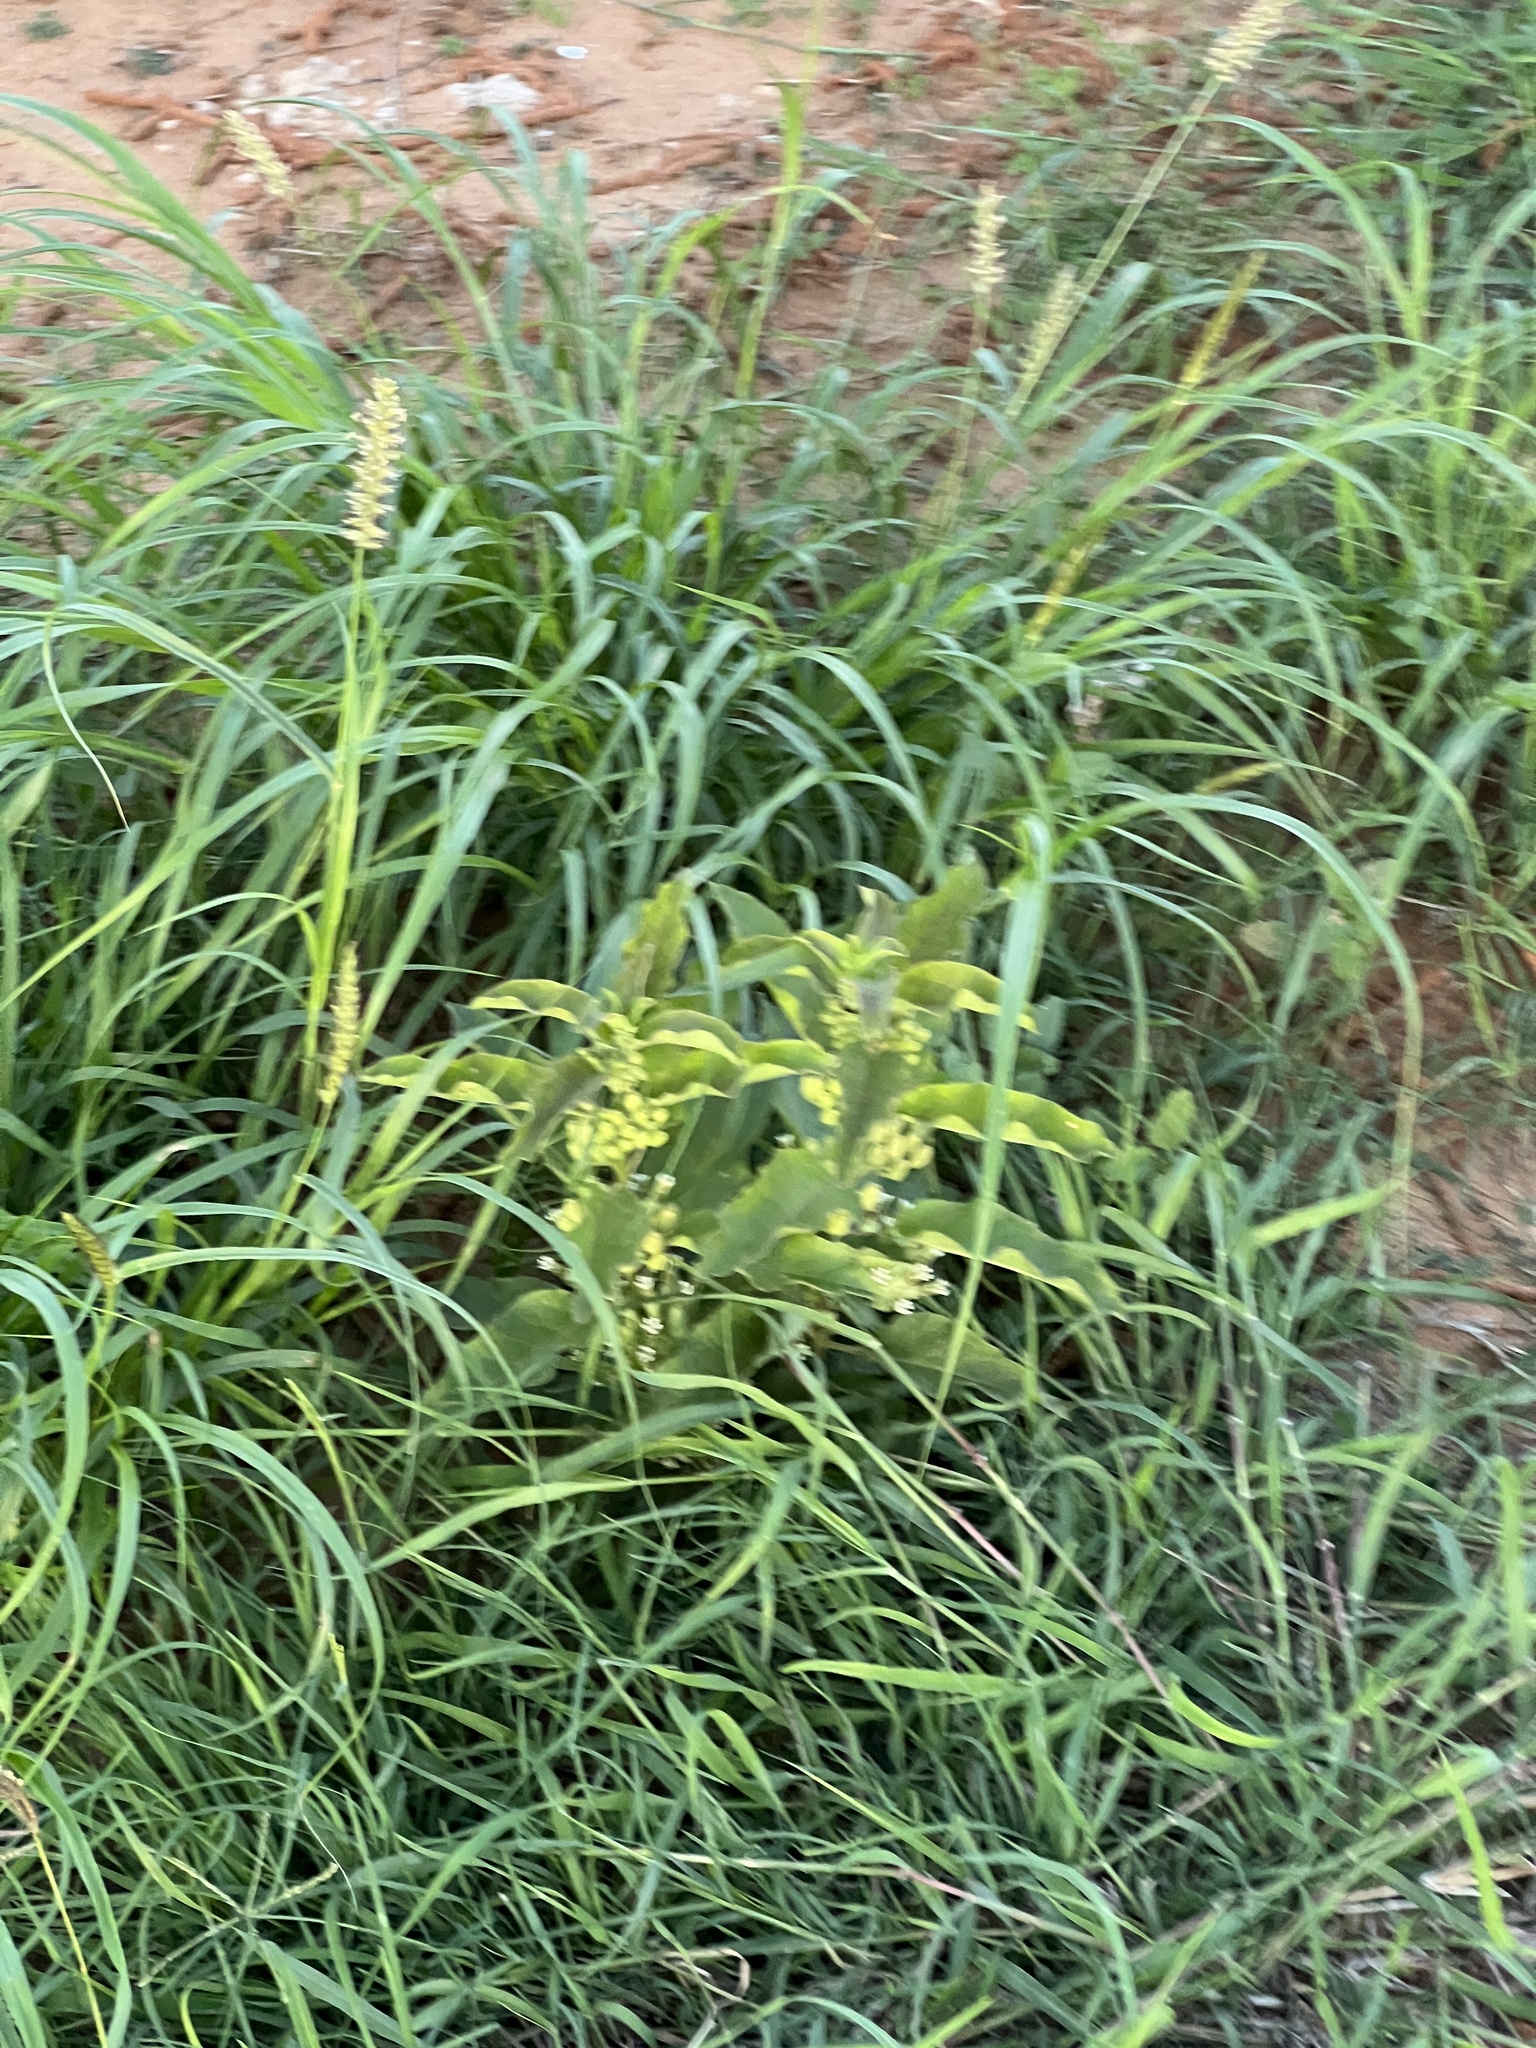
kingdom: Plantae
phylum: Tracheophyta
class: Magnoliopsida
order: Gentianales
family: Apocynaceae
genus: Asclepias
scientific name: Asclepias oenotheroides
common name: Zizotes milkweed
